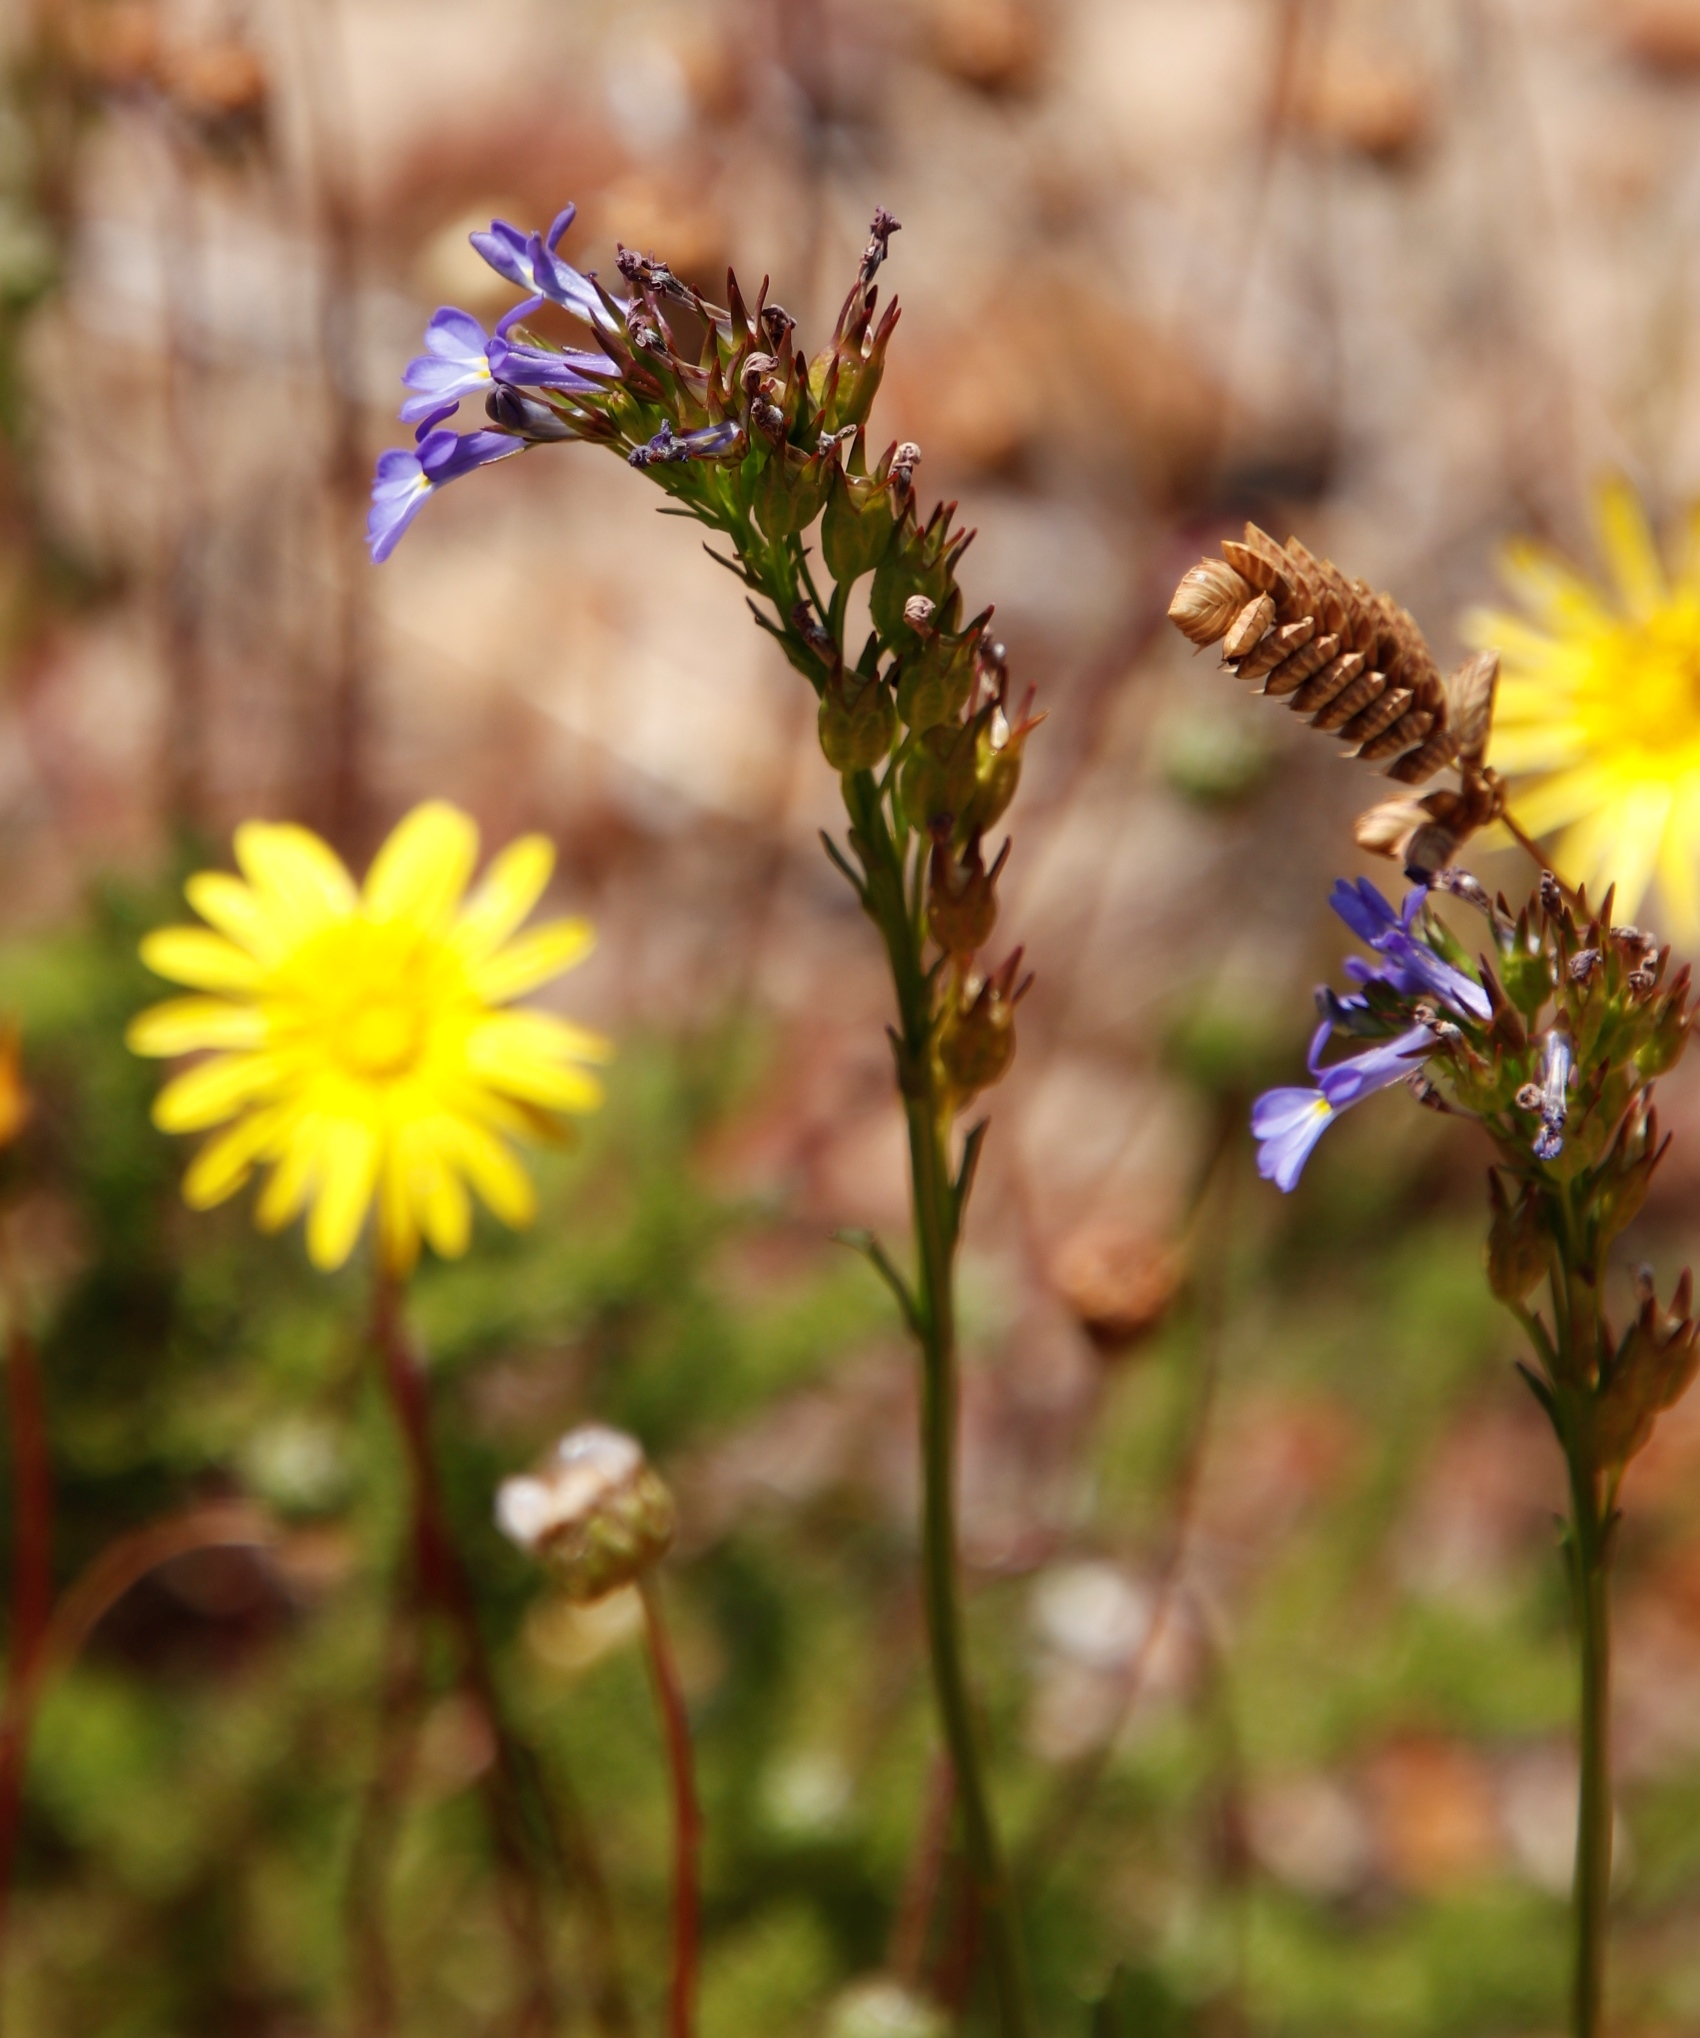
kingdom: Plantae
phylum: Tracheophyta
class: Magnoliopsida
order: Asterales
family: Campanulaceae
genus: Lobelia
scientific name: Lobelia comosa
